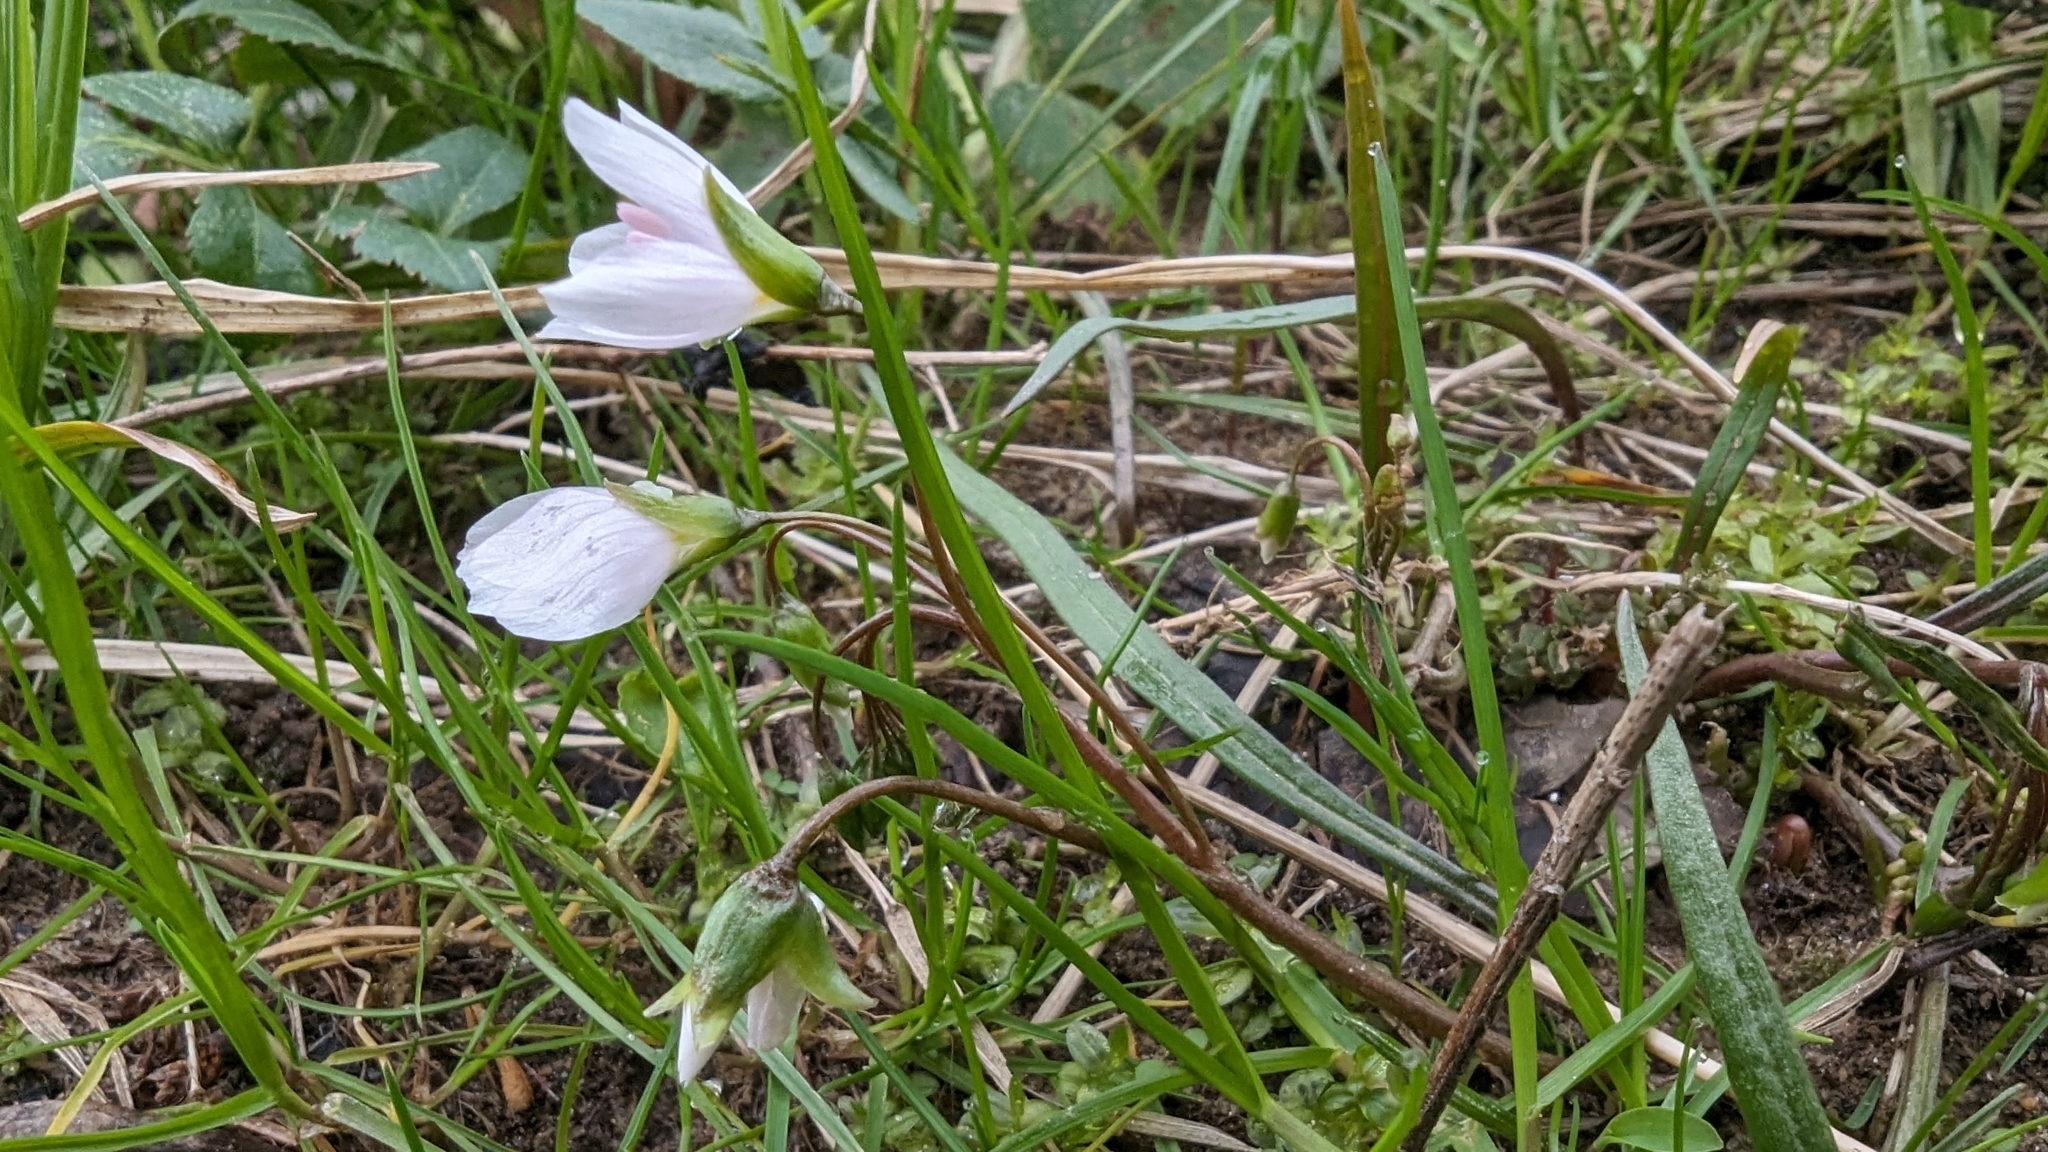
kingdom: Plantae
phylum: Tracheophyta
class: Magnoliopsida
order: Caryophyllales
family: Montiaceae
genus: Claytonia
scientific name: Claytonia virginica
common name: Virginia springbeauty
